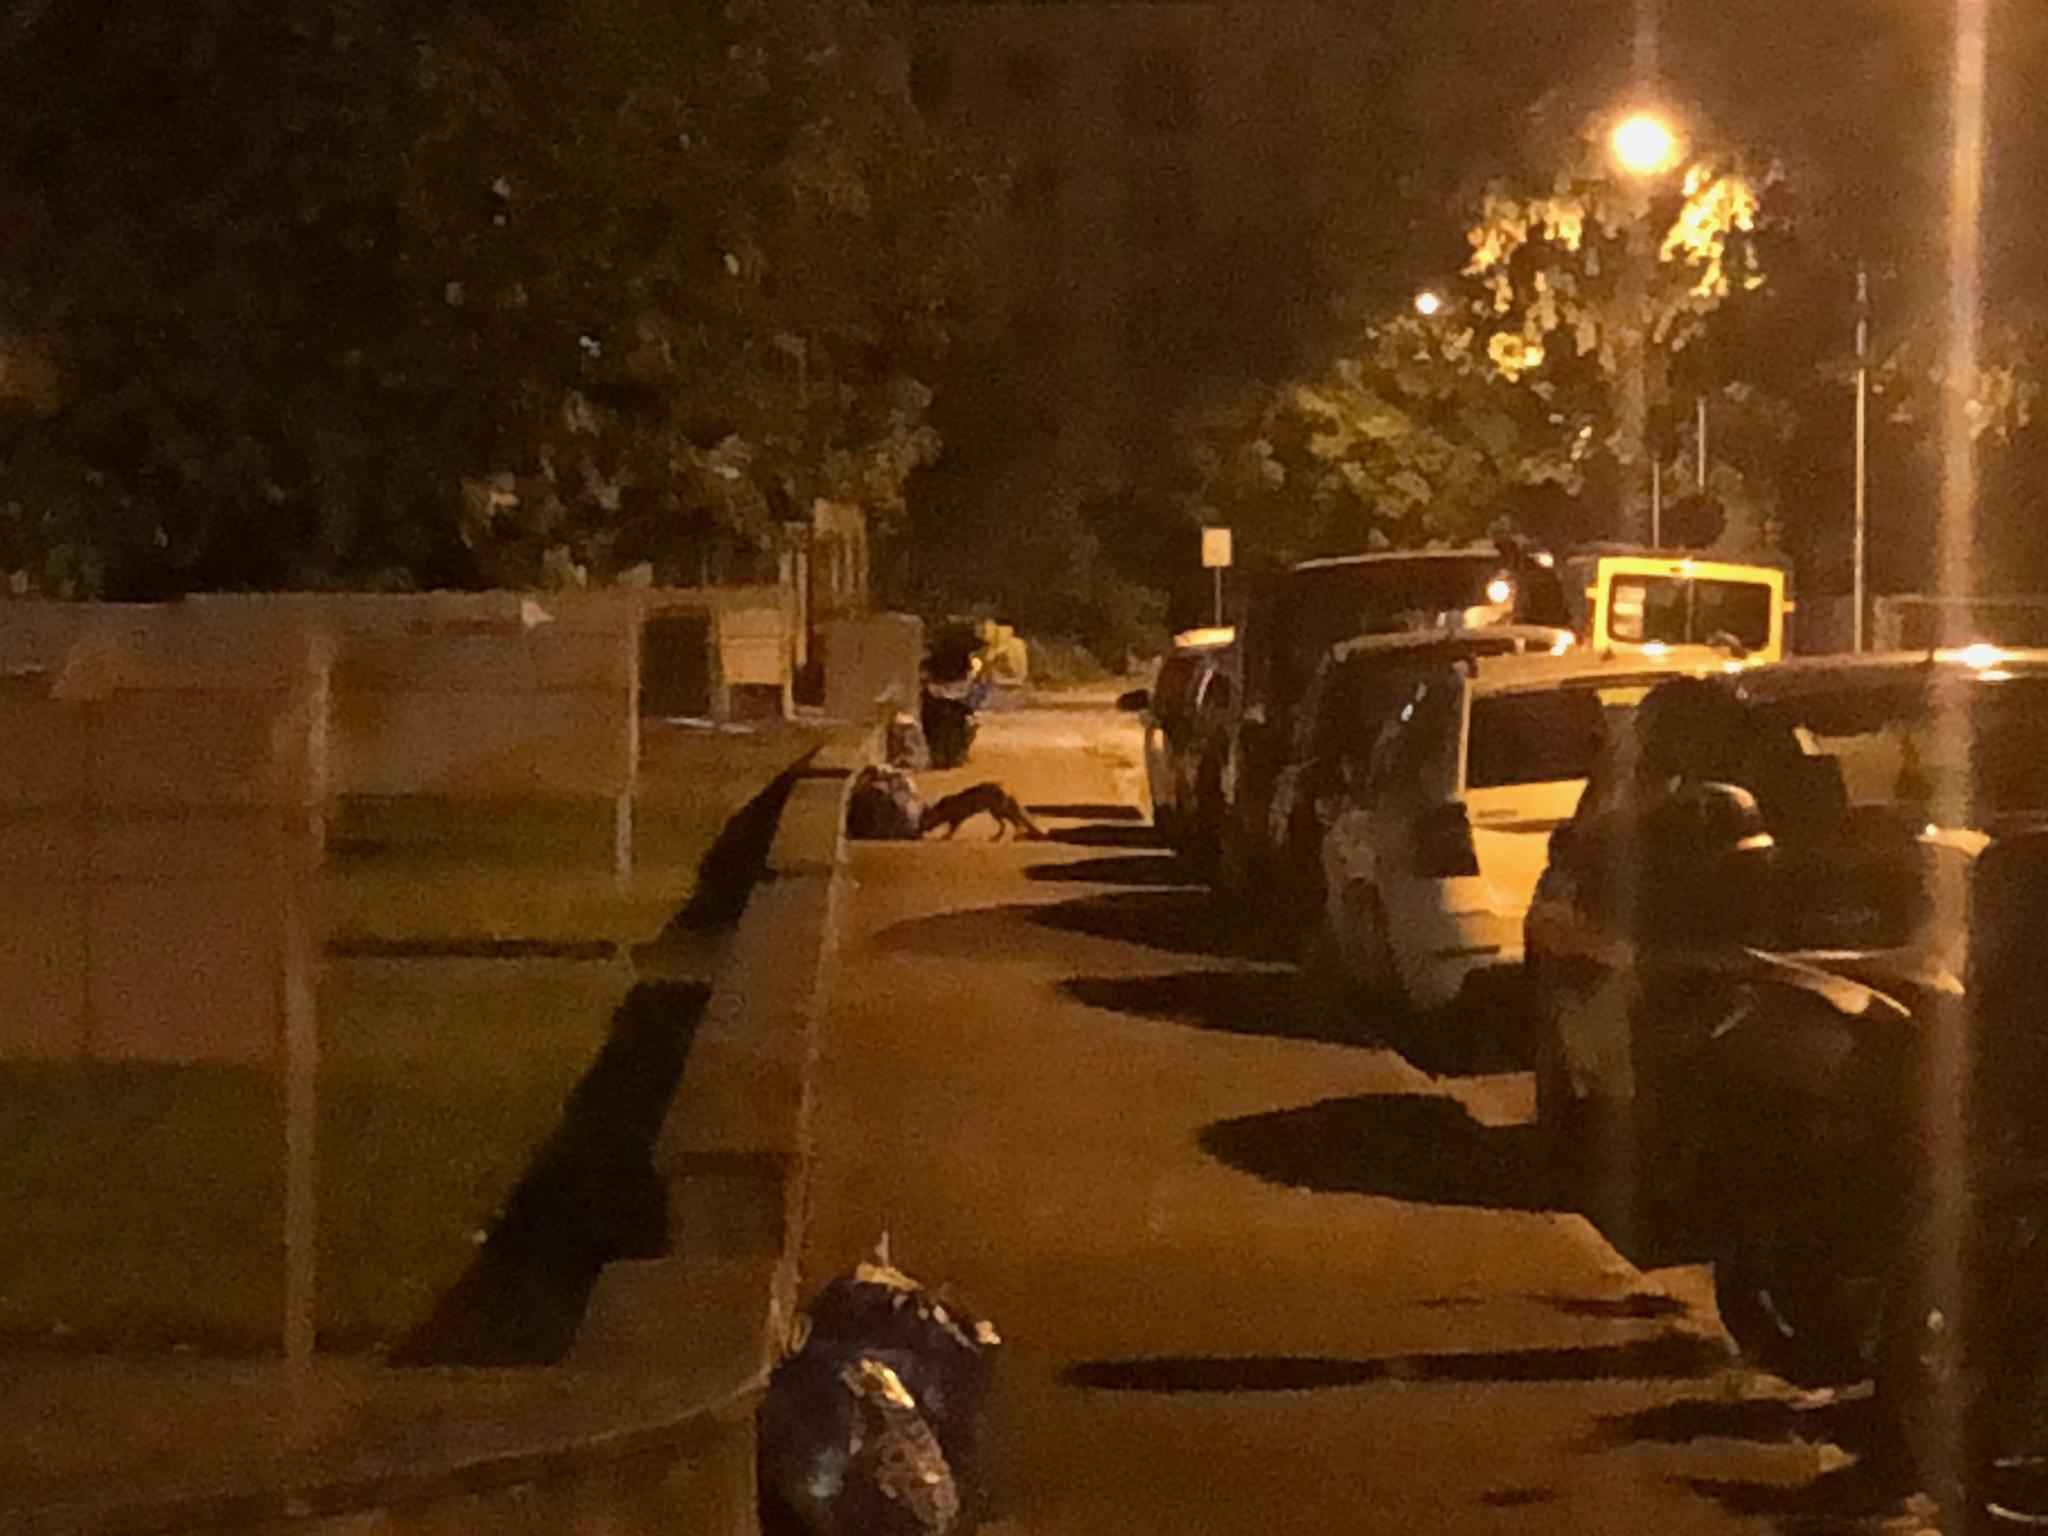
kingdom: Animalia
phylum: Chordata
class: Mammalia
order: Carnivora
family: Canidae
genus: Vulpes
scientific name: Vulpes vulpes
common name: Red fox
